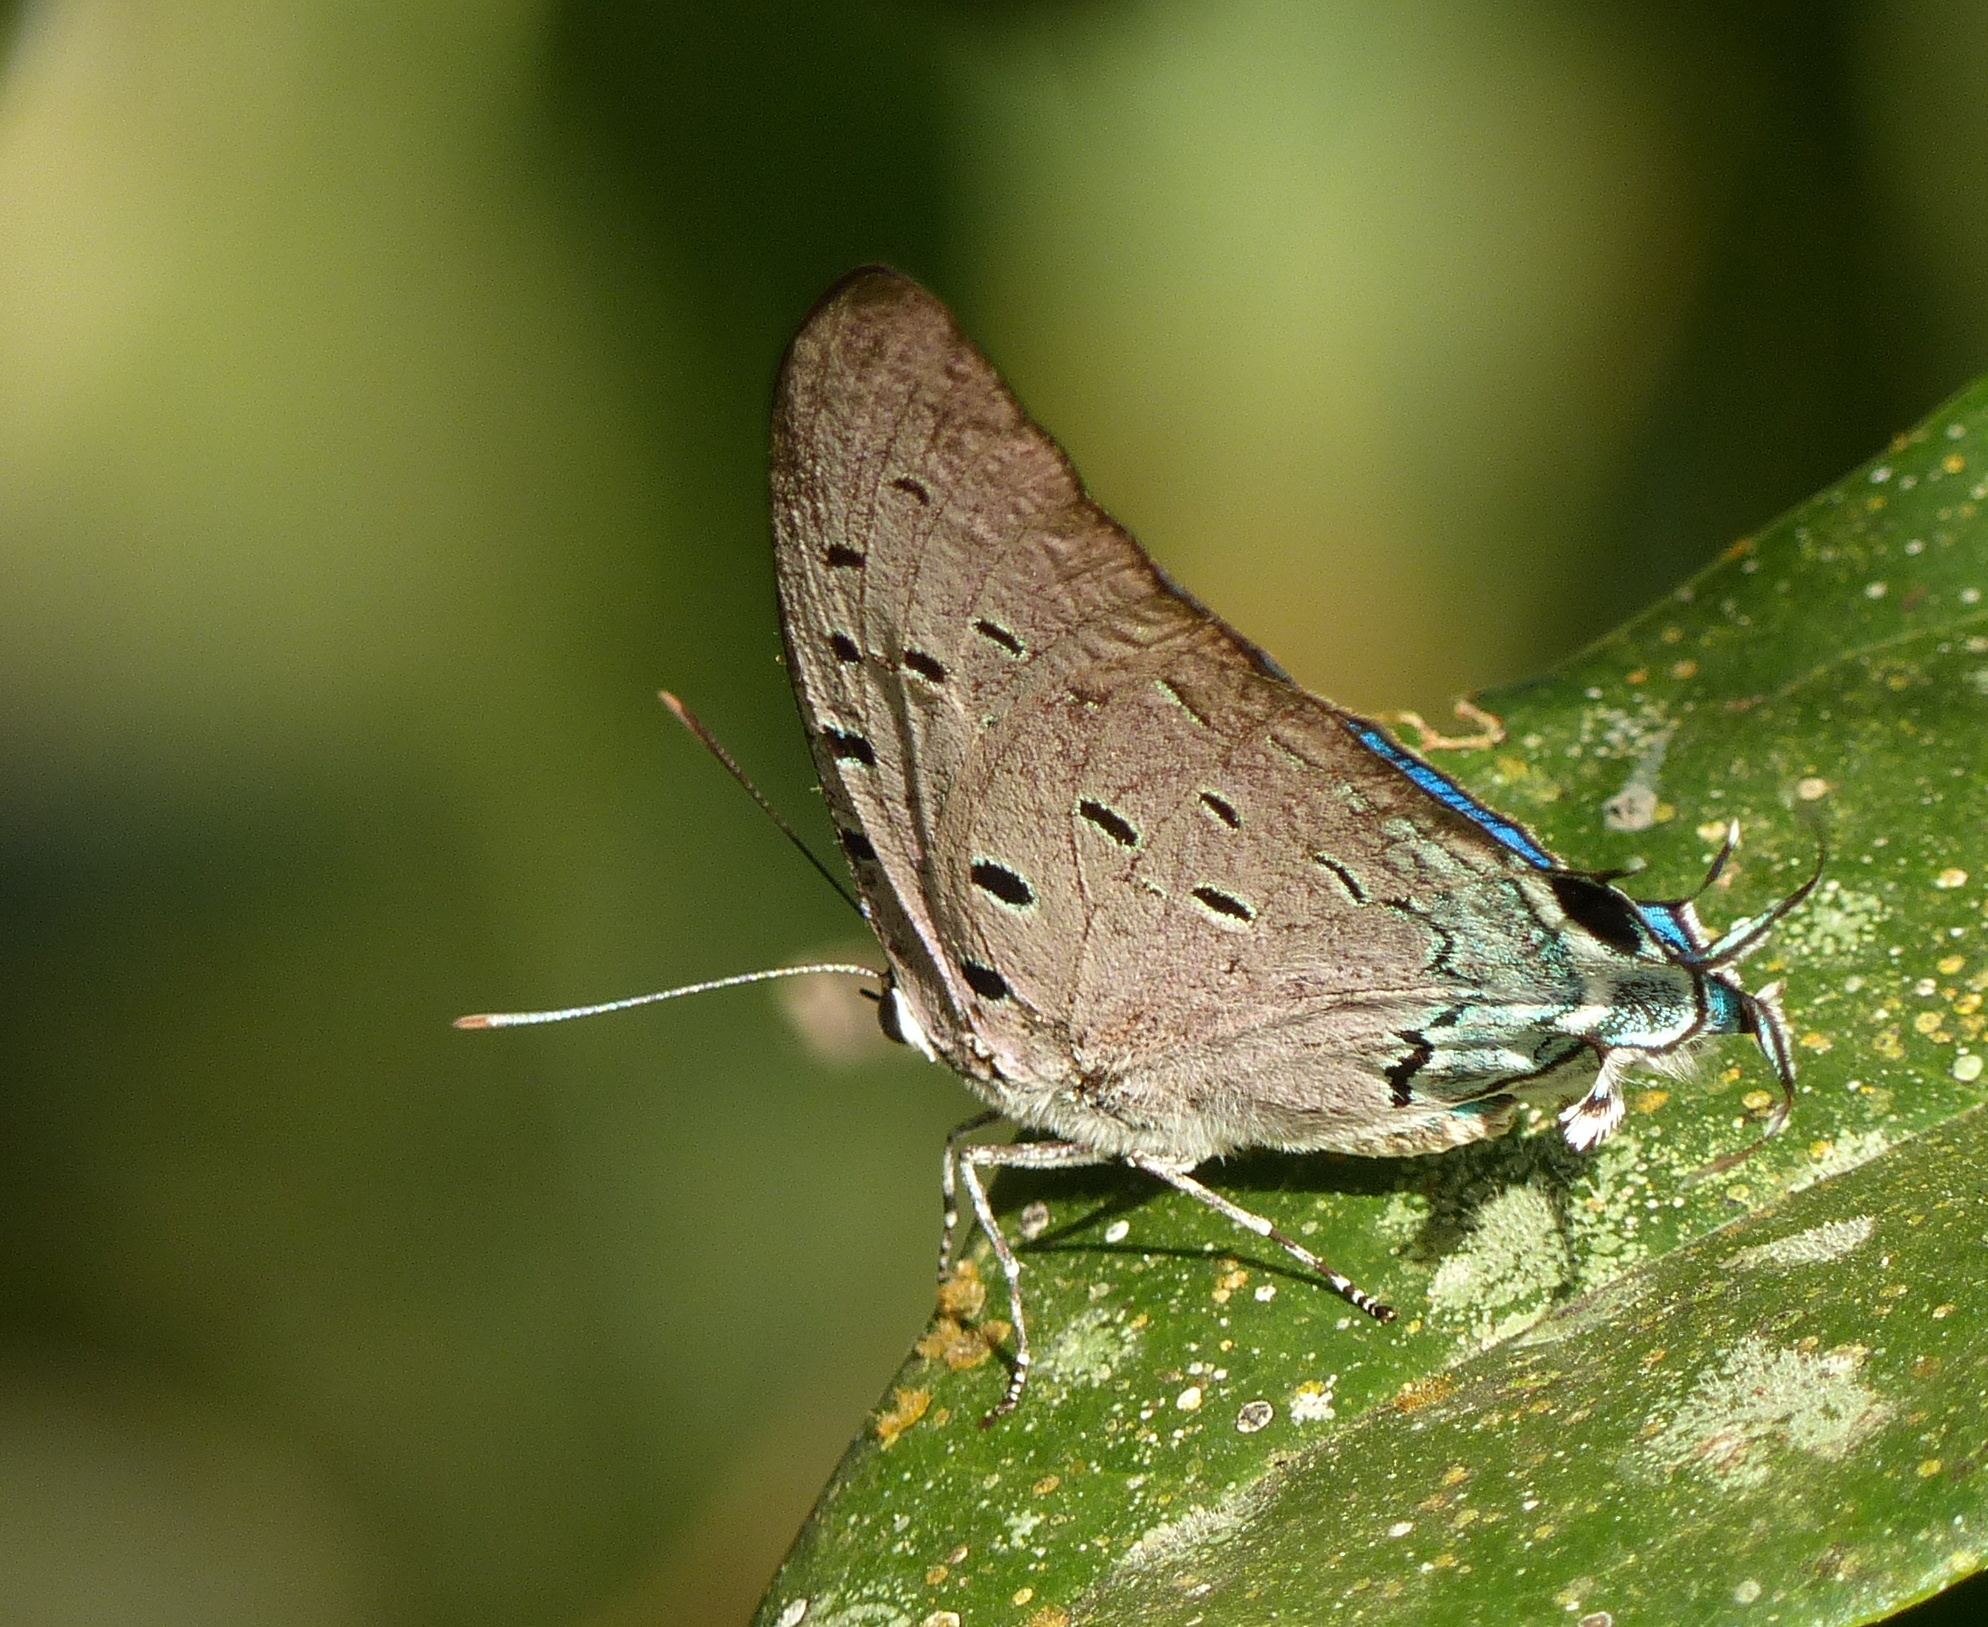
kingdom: Animalia
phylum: Arthropoda
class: Insecta
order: Lepidoptera
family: Lycaenidae
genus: Pseudolycaena
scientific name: Pseudolycaena marsyas
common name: Marsyas hairstreak
